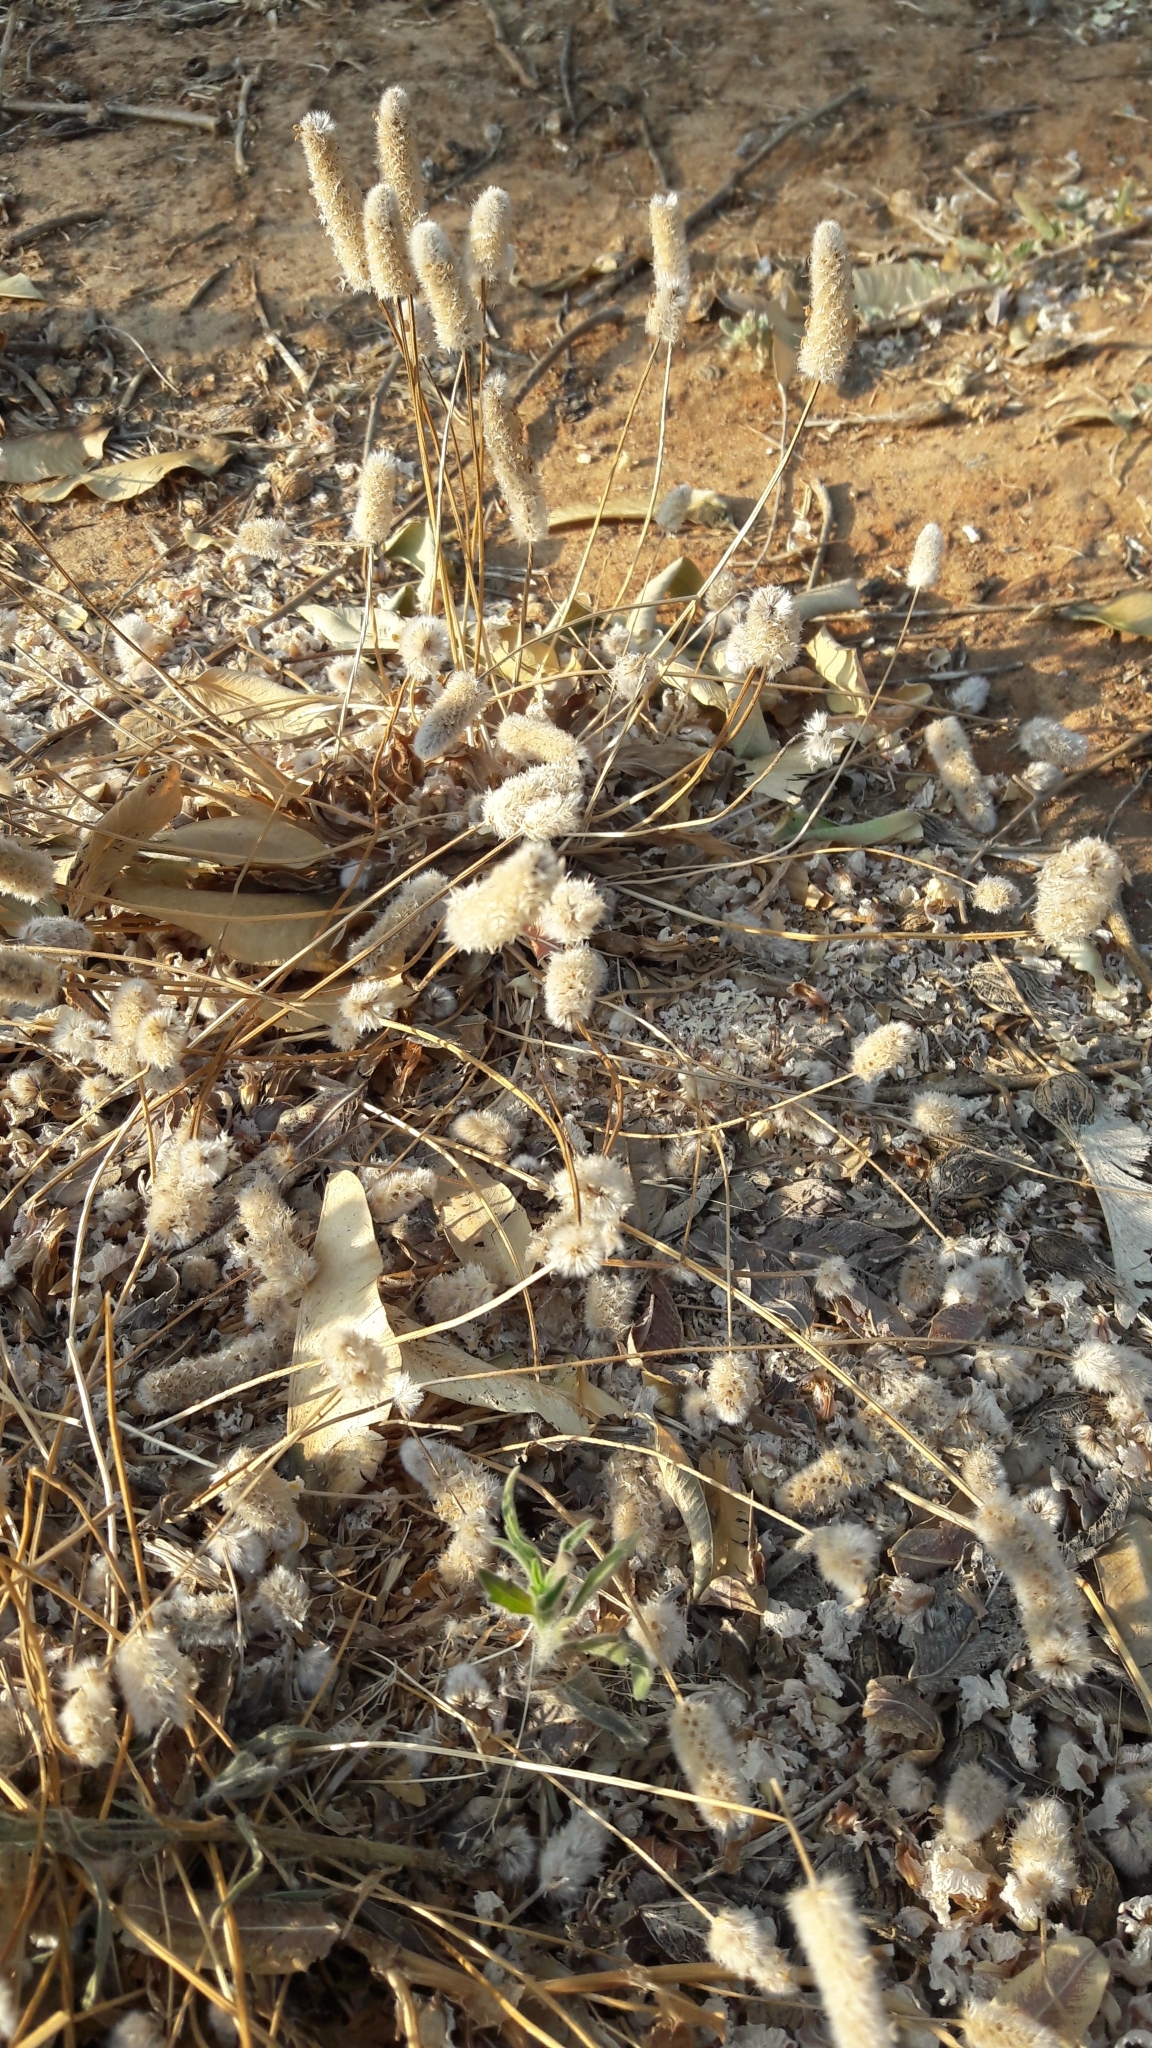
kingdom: Plantae
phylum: Tracheophyta
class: Magnoliopsida
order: Lamiales
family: Plantaginaceae
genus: Plantago
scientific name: Plantago lagopus
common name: Hare-foot plantain
